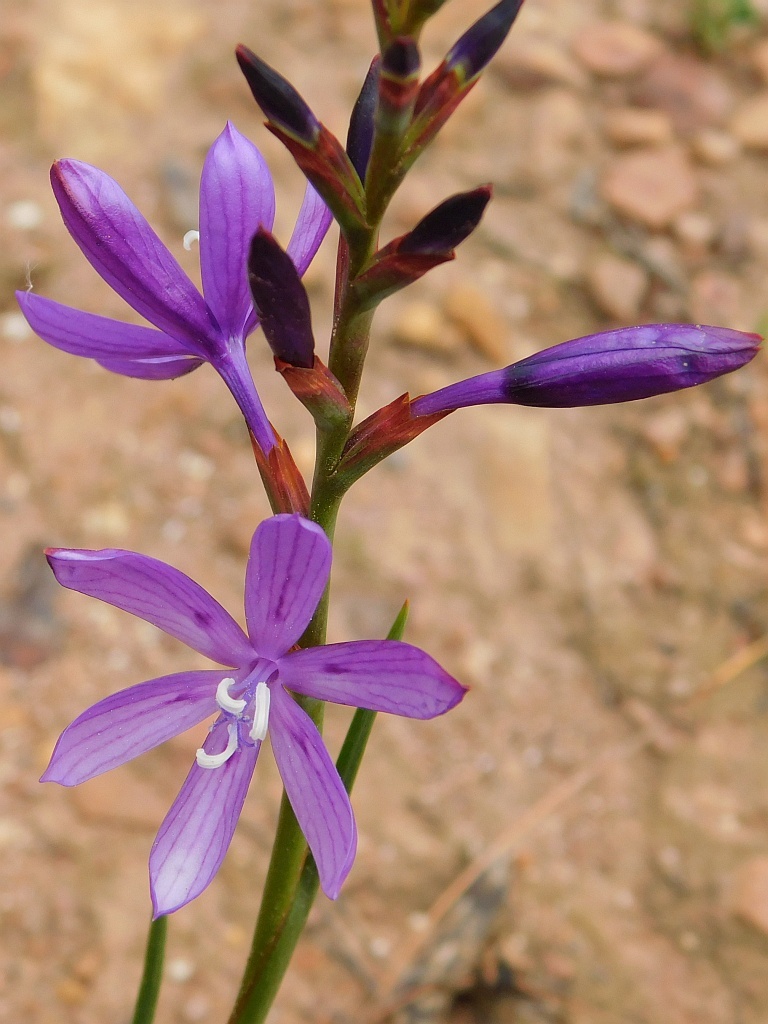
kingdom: Plantae
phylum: Tracheophyta
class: Liliopsida
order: Asparagales
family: Iridaceae
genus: Thereianthus
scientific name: Thereianthus bracteolatus
